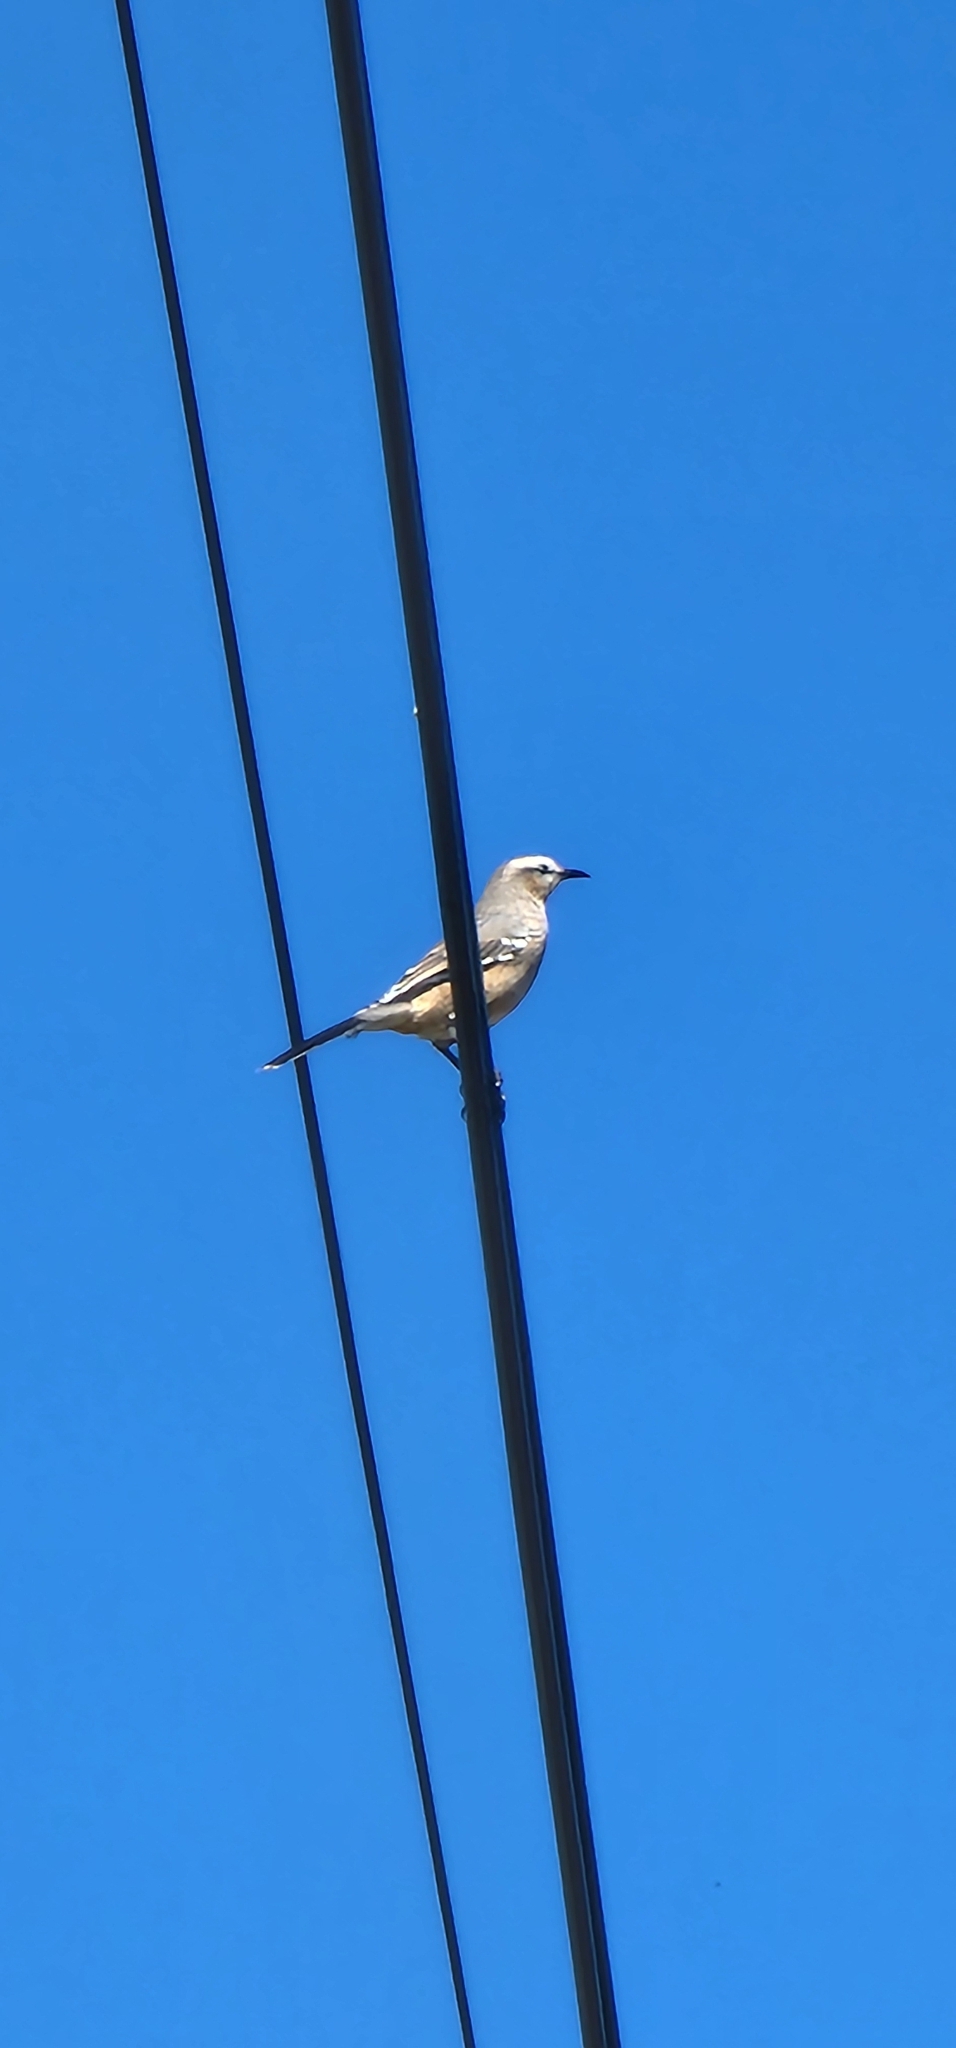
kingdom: Animalia
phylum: Chordata
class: Aves
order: Passeriformes
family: Mimidae
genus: Mimus
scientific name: Mimus saturninus
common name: Chalk-browed mockingbird
